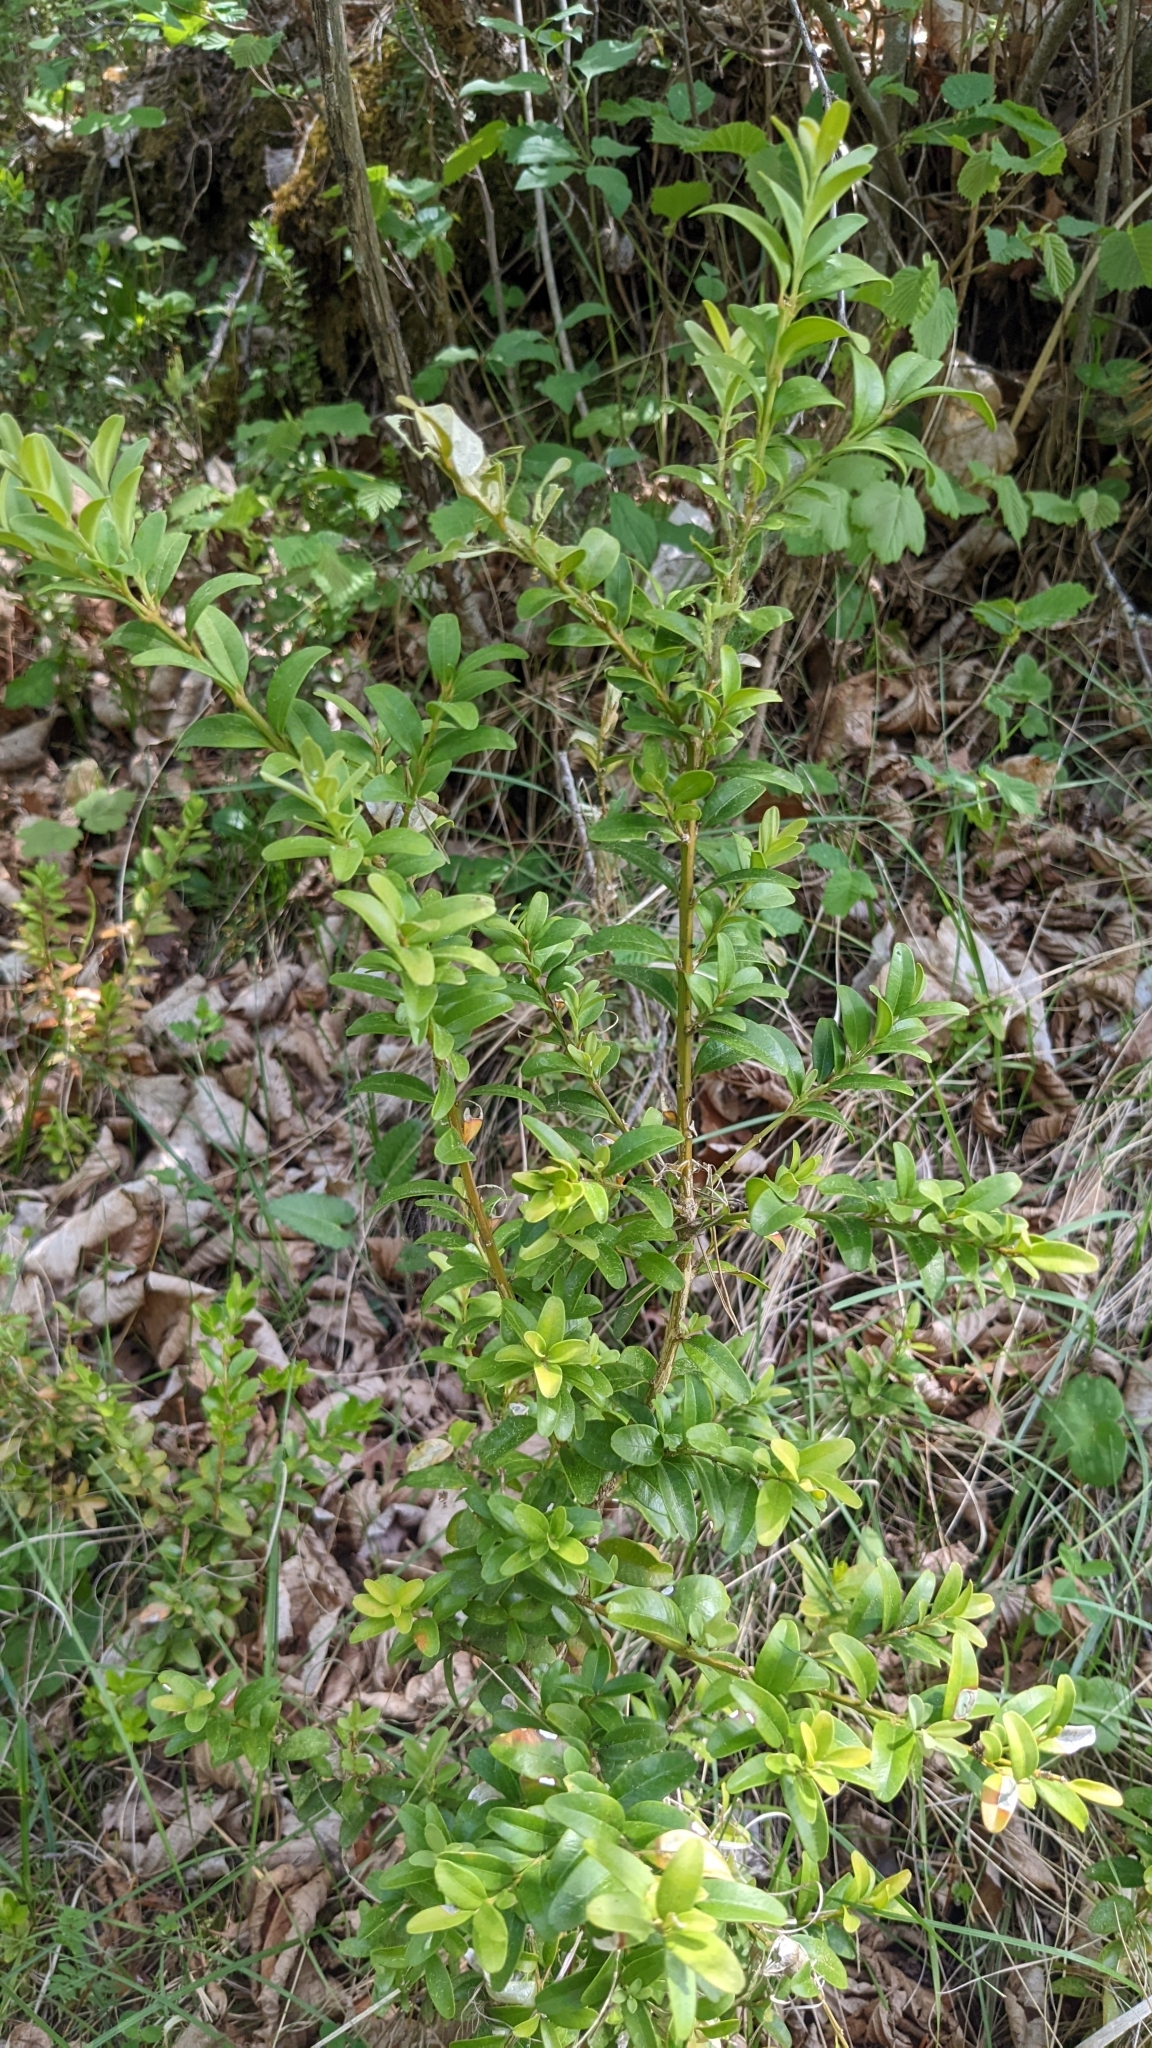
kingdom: Plantae
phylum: Tracheophyta
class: Magnoliopsida
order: Buxales
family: Buxaceae
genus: Buxus
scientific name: Buxus sempervirens
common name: Box
